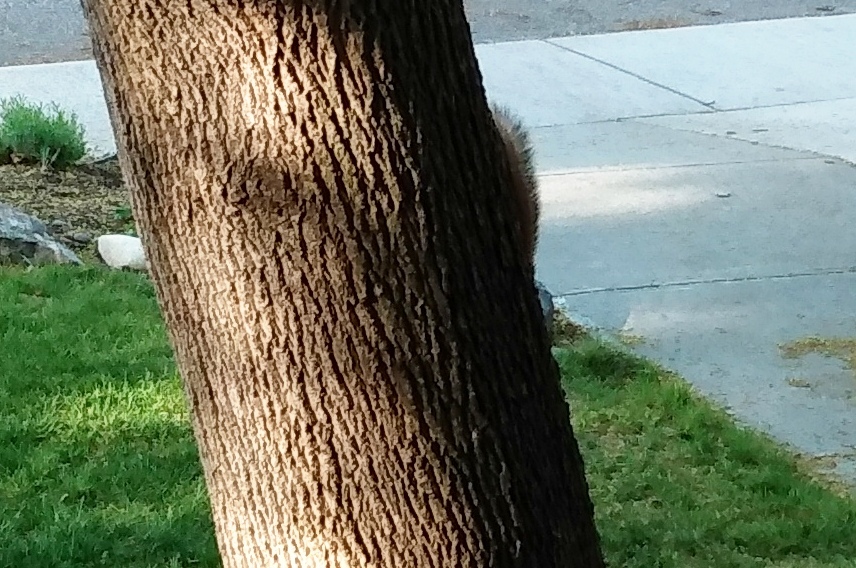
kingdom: Animalia
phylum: Chordata
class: Mammalia
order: Rodentia
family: Sciuridae
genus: Sciurus
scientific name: Sciurus niger
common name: Fox squirrel
